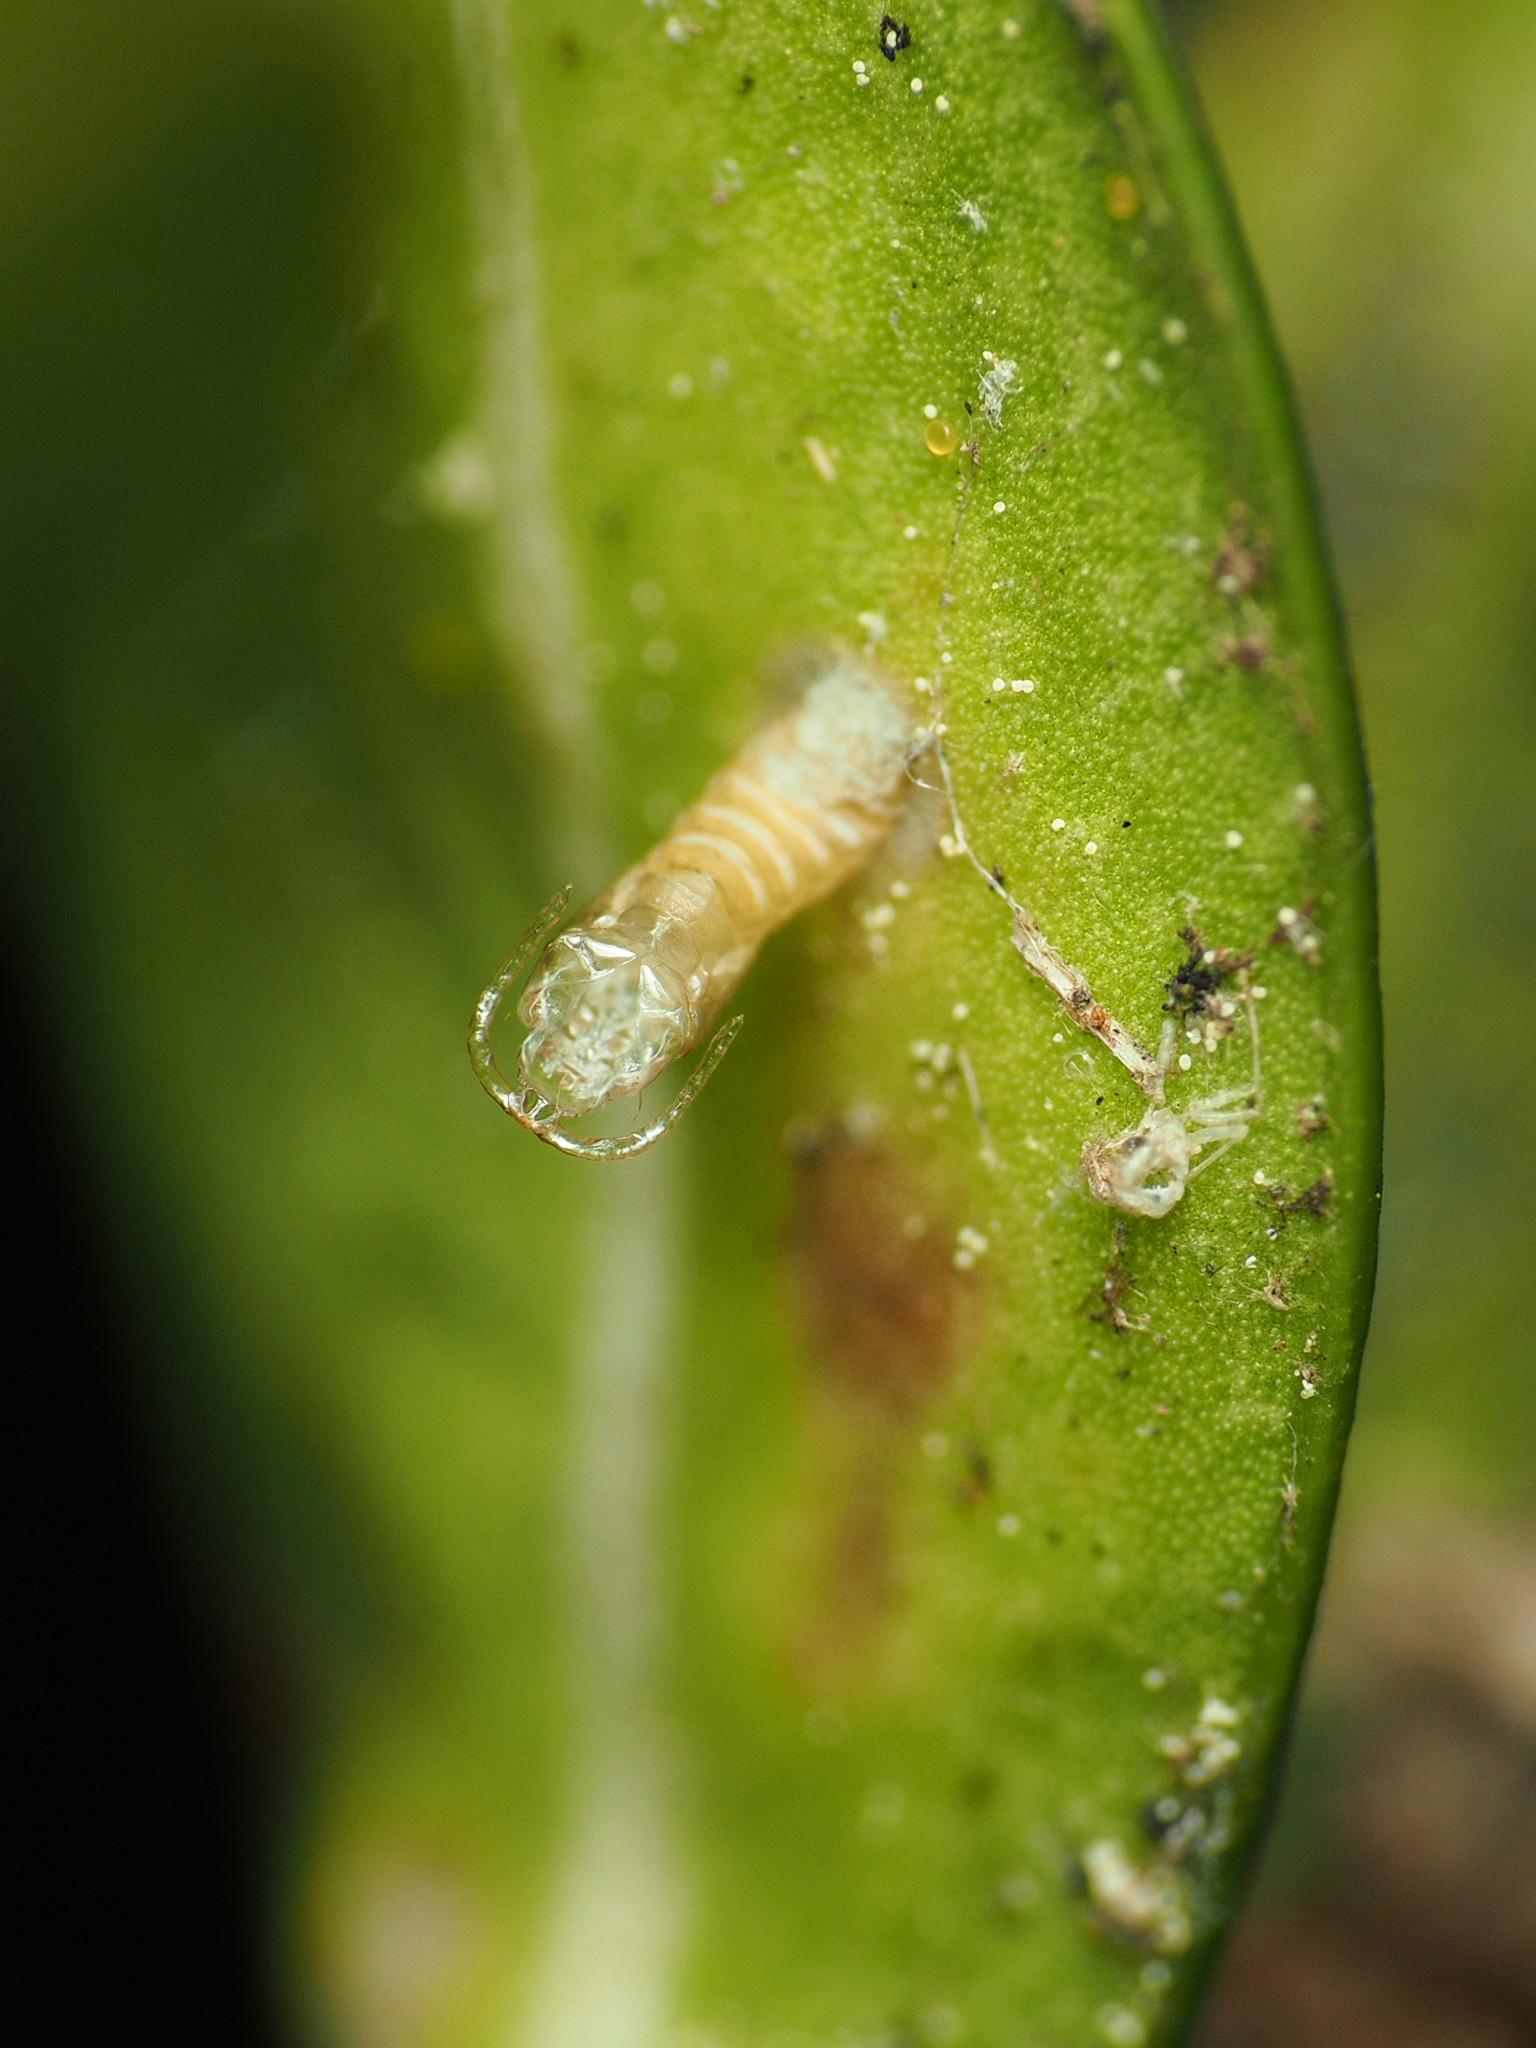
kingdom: Animalia
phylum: Arthropoda
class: Insecta
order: Diptera
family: Cecidomyiidae
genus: Monarthropalpus
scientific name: Monarthropalpus flavus
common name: Boxwood leafminer
